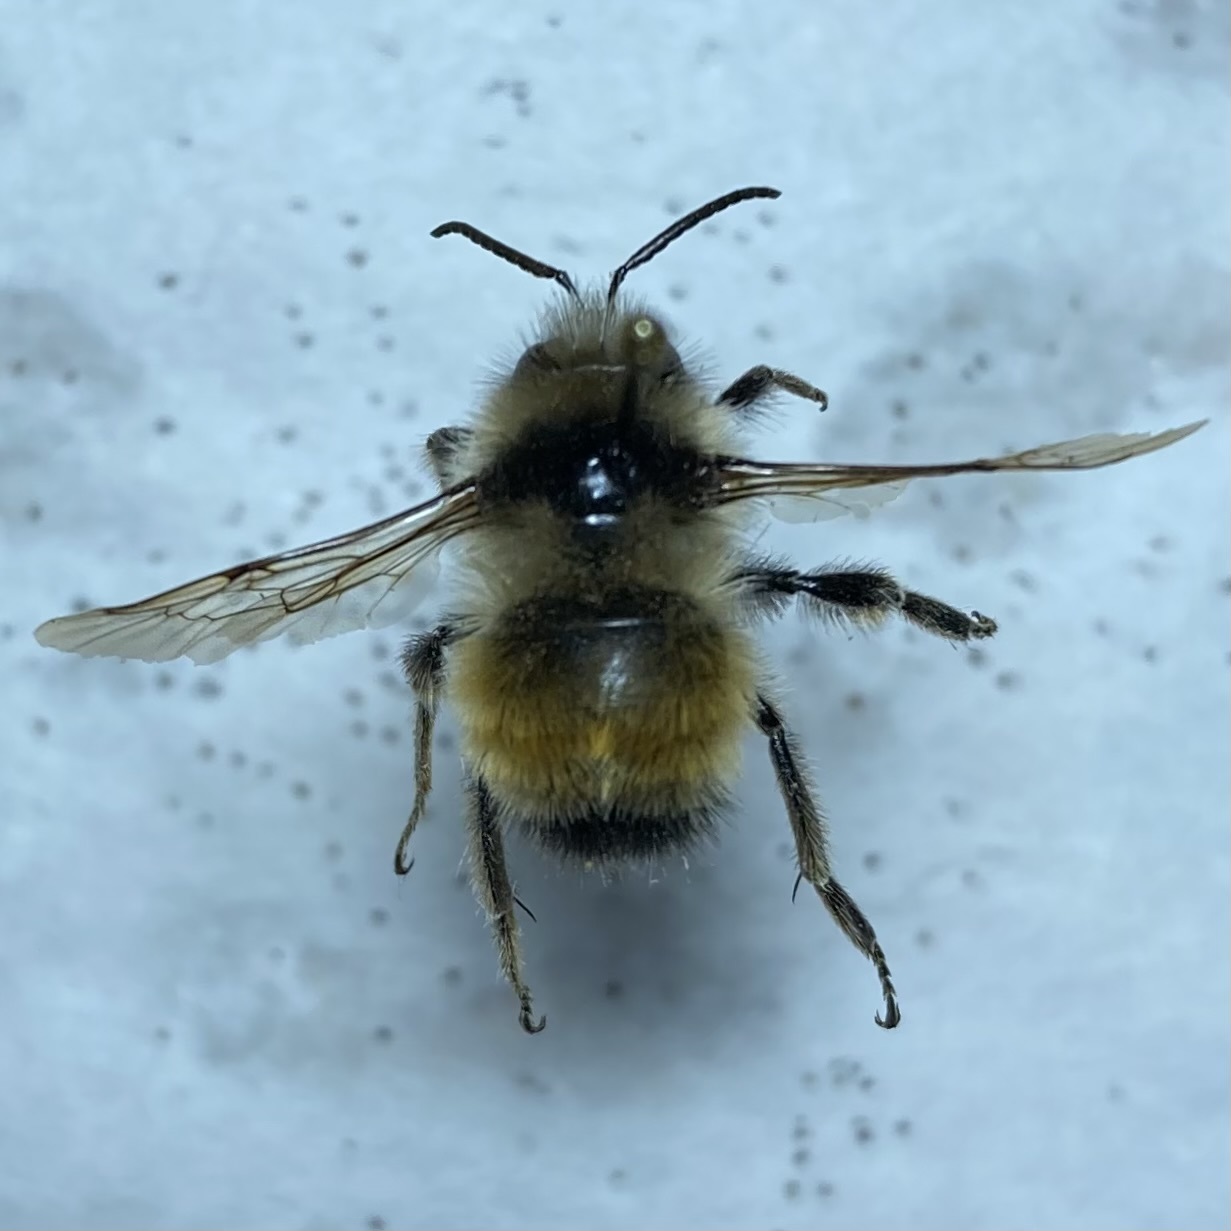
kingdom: Animalia
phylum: Arthropoda
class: Insecta
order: Hymenoptera
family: Apidae
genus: Bombus
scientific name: Bombus ternarius
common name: Tri-colored bumble bee
